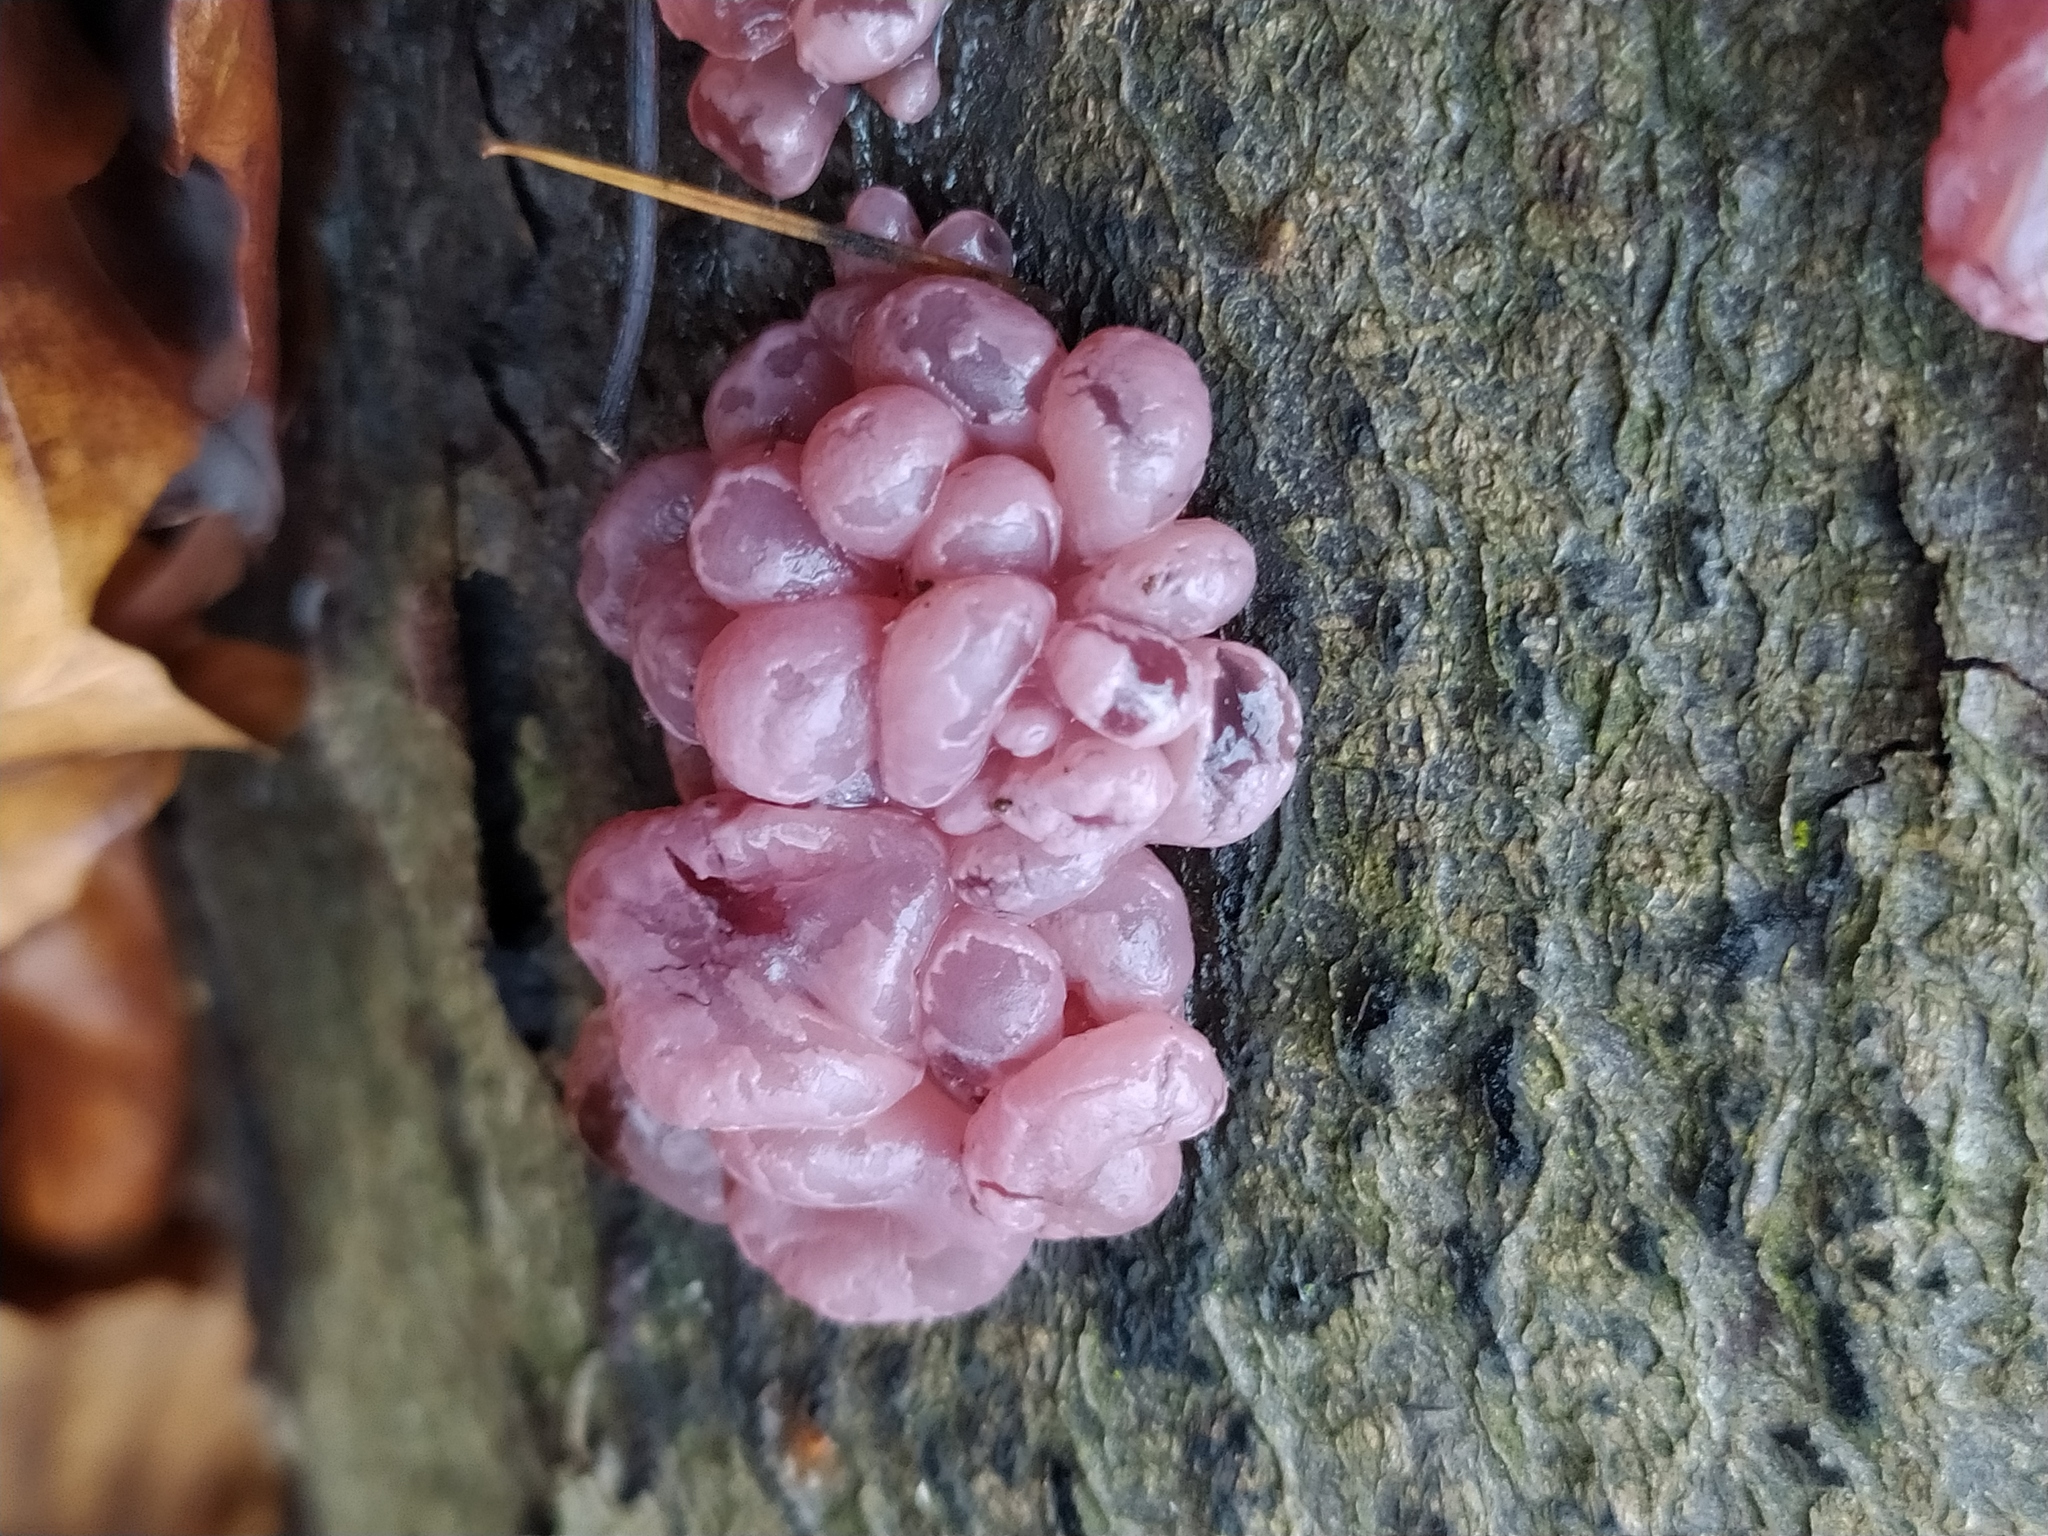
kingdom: Fungi
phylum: Ascomycota
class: Leotiomycetes
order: Helotiales
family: Gelatinodiscaceae
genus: Ascocoryne
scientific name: Ascocoryne sarcoides
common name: Purple jellydisc
